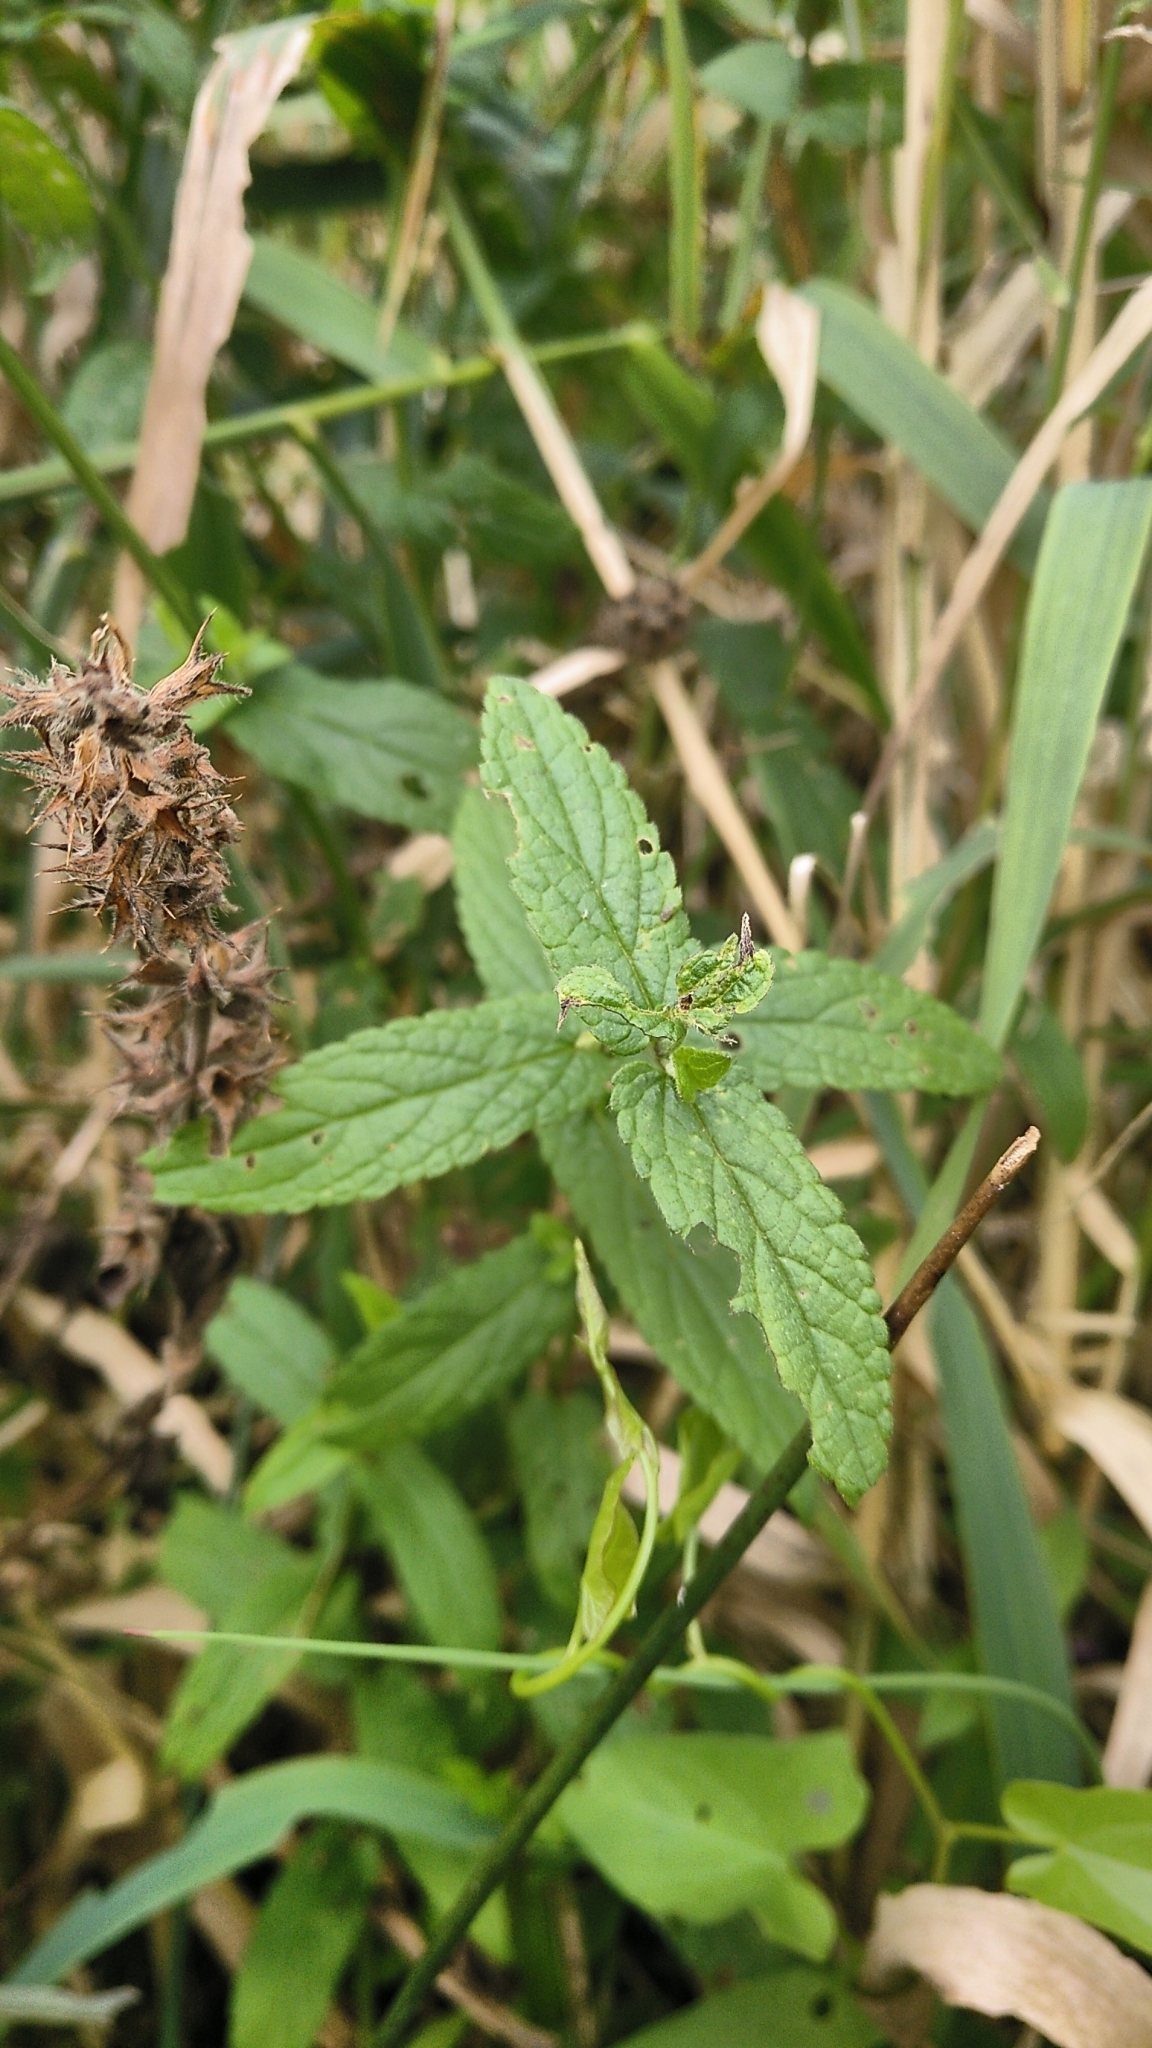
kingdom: Plantae
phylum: Tracheophyta
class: Magnoliopsida
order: Lamiales
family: Lamiaceae
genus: Stachys
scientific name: Stachys palustris
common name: Marsh woundwort
